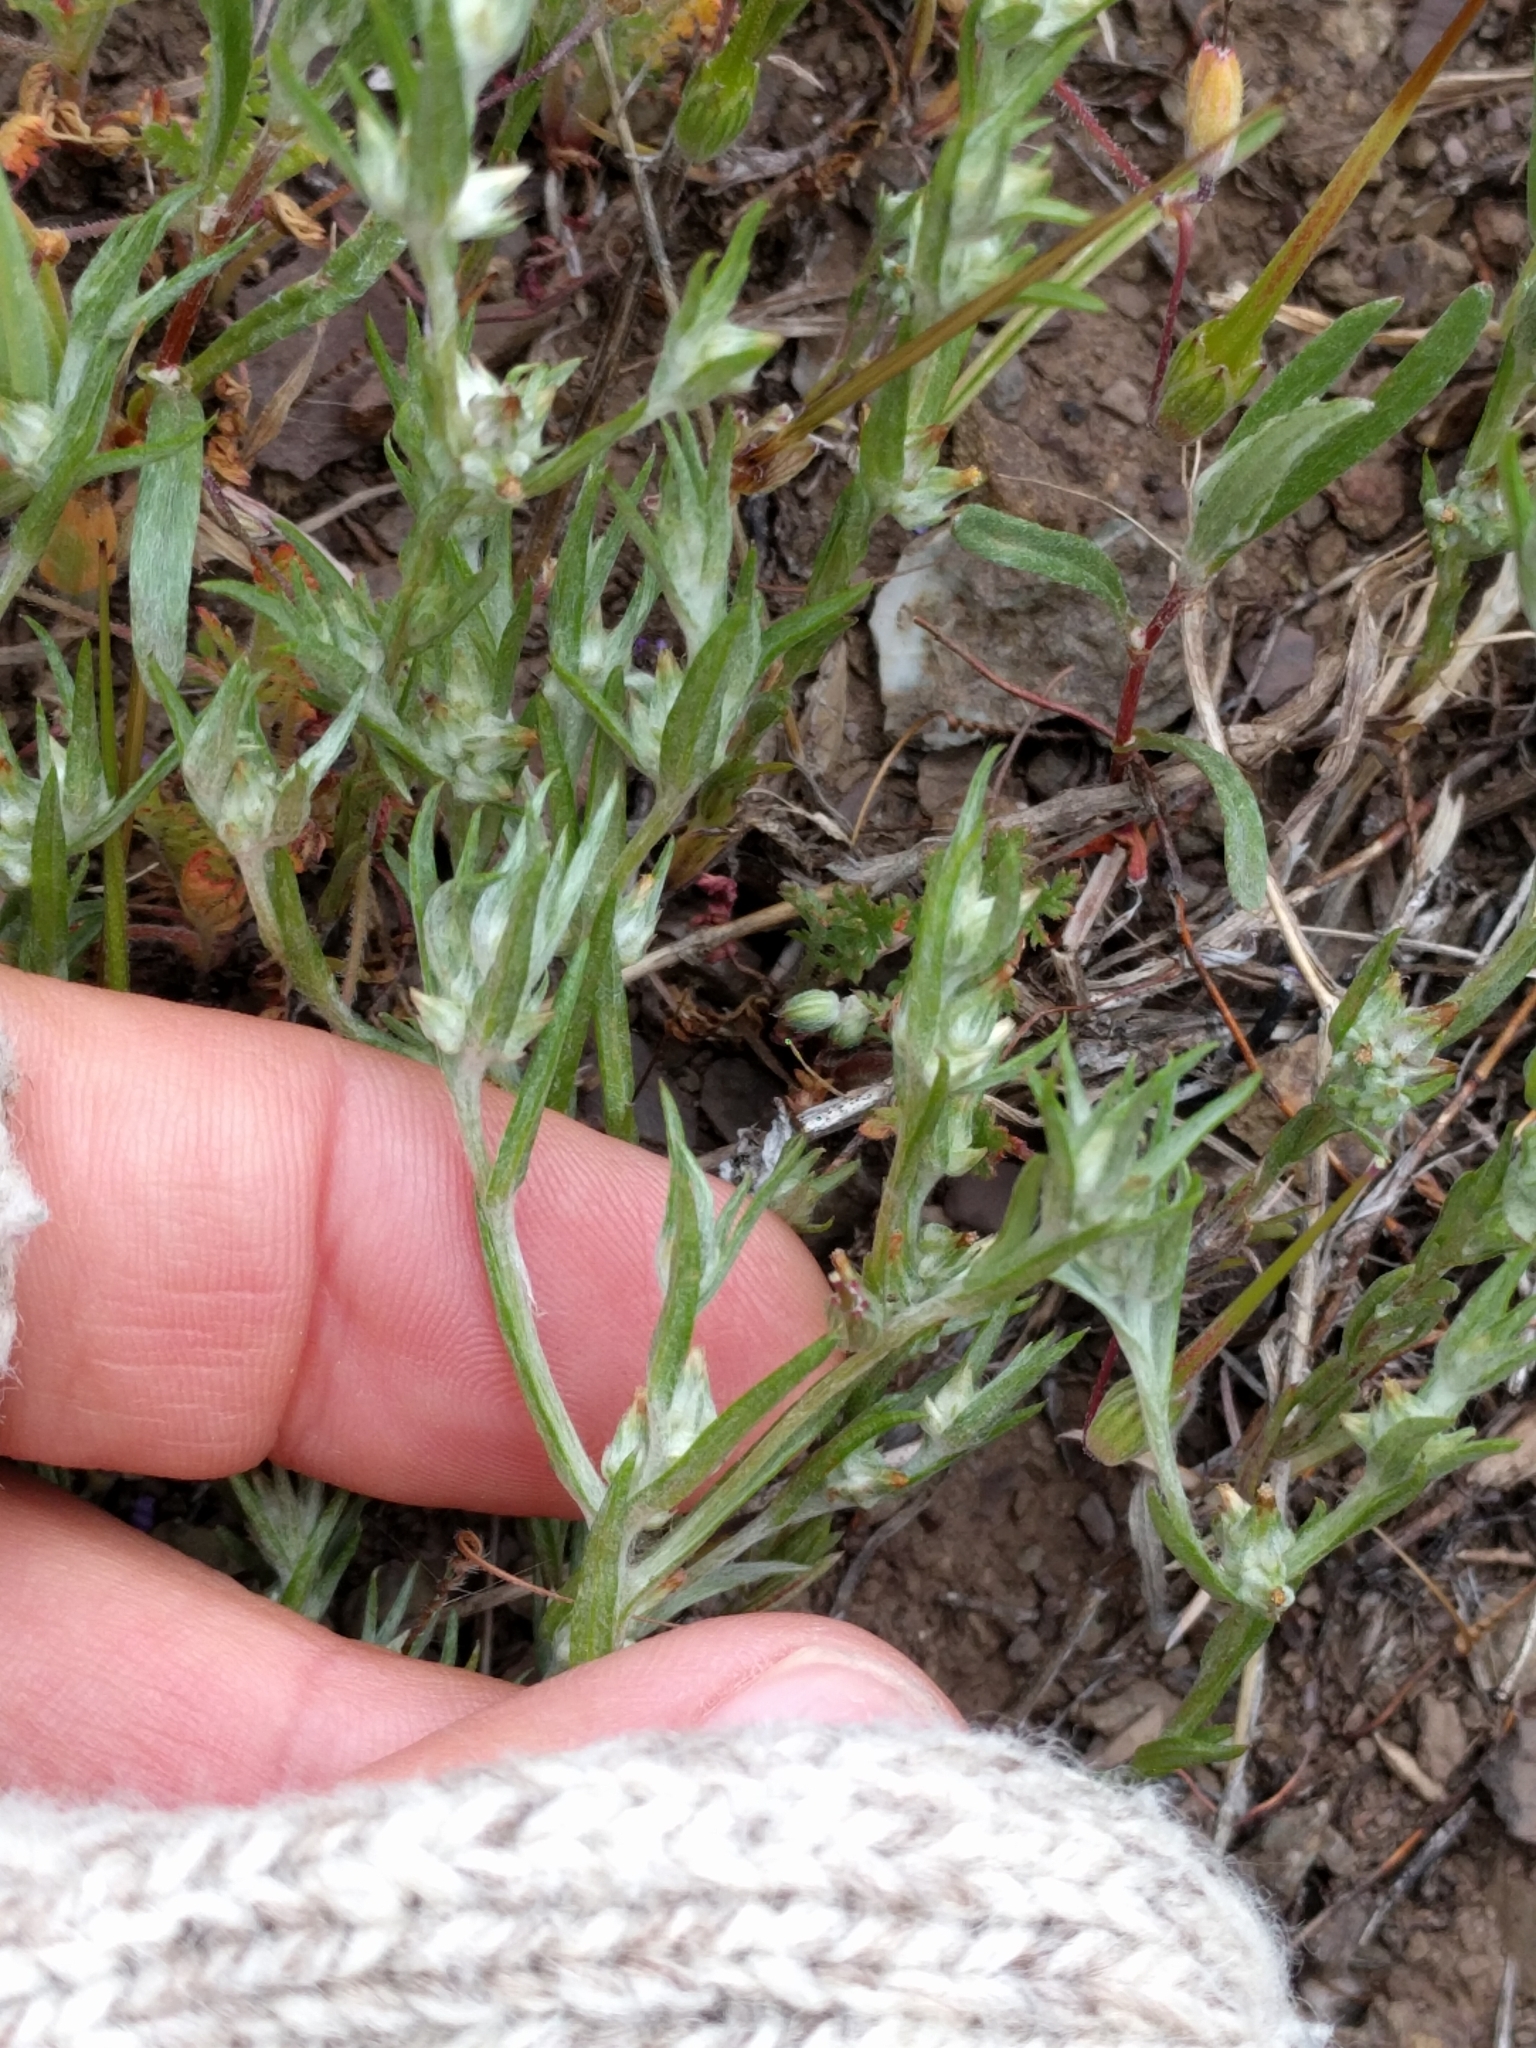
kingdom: Plantae
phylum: Tracheophyta
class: Magnoliopsida
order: Asterales
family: Asteraceae
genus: Logfia
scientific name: Logfia gallica
